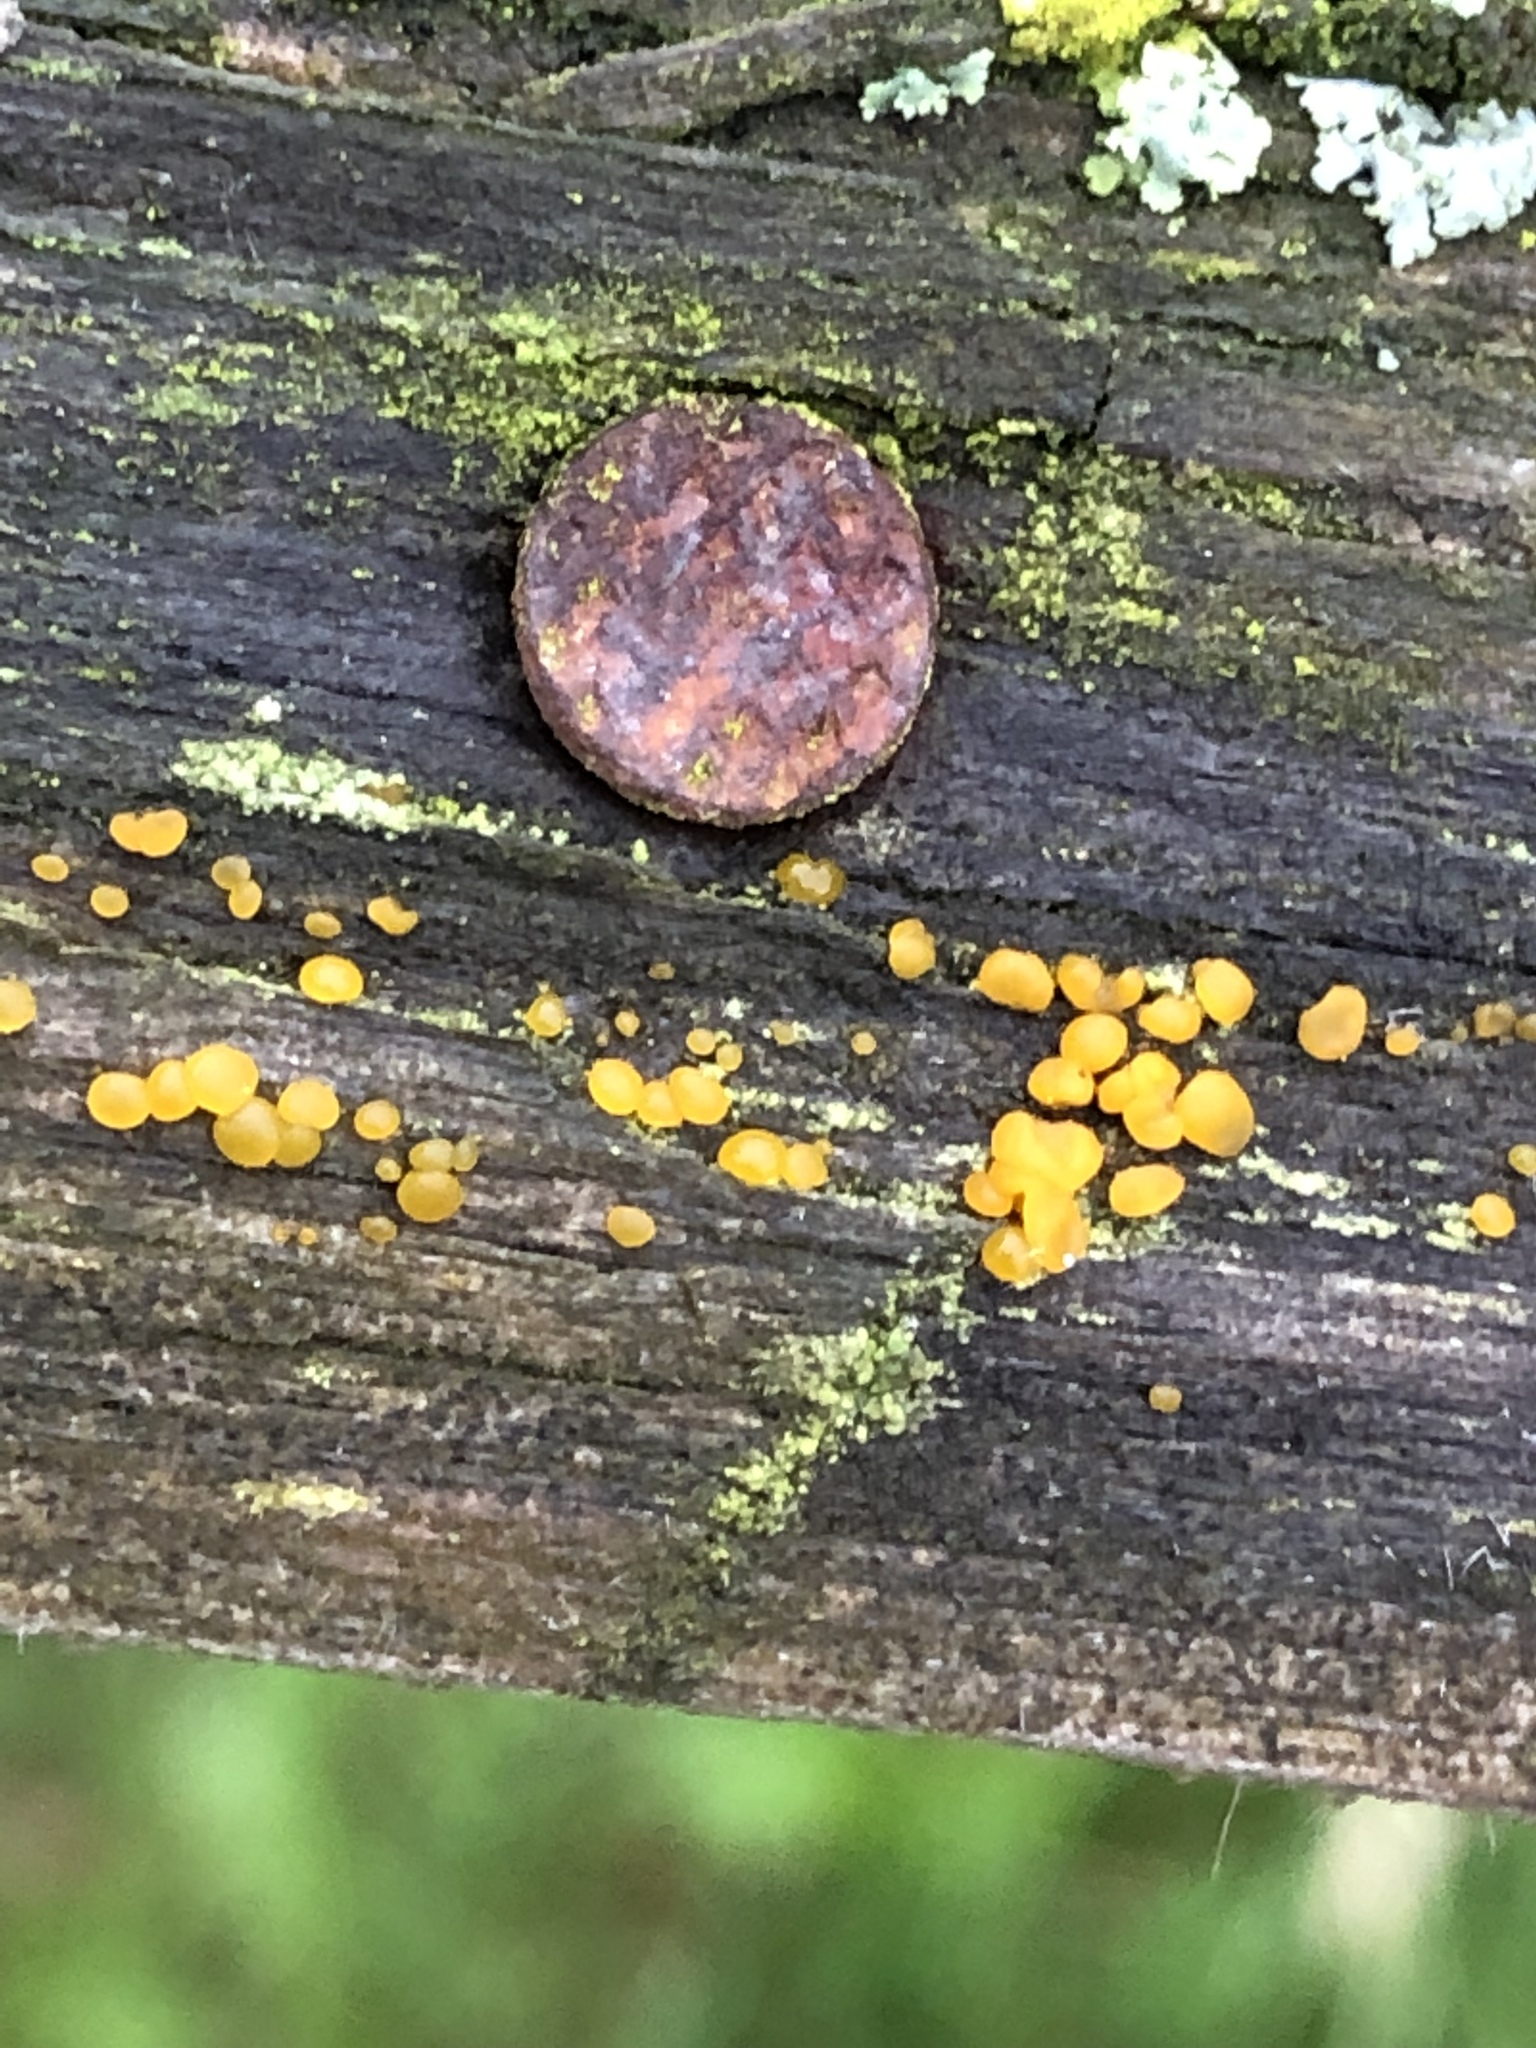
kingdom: Fungi
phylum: Basidiomycota
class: Dacrymycetes
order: Dacrymycetales
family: Dacrymycetaceae
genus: Dacrymyces
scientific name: Dacrymyces stillatus
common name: Common jelly spot
